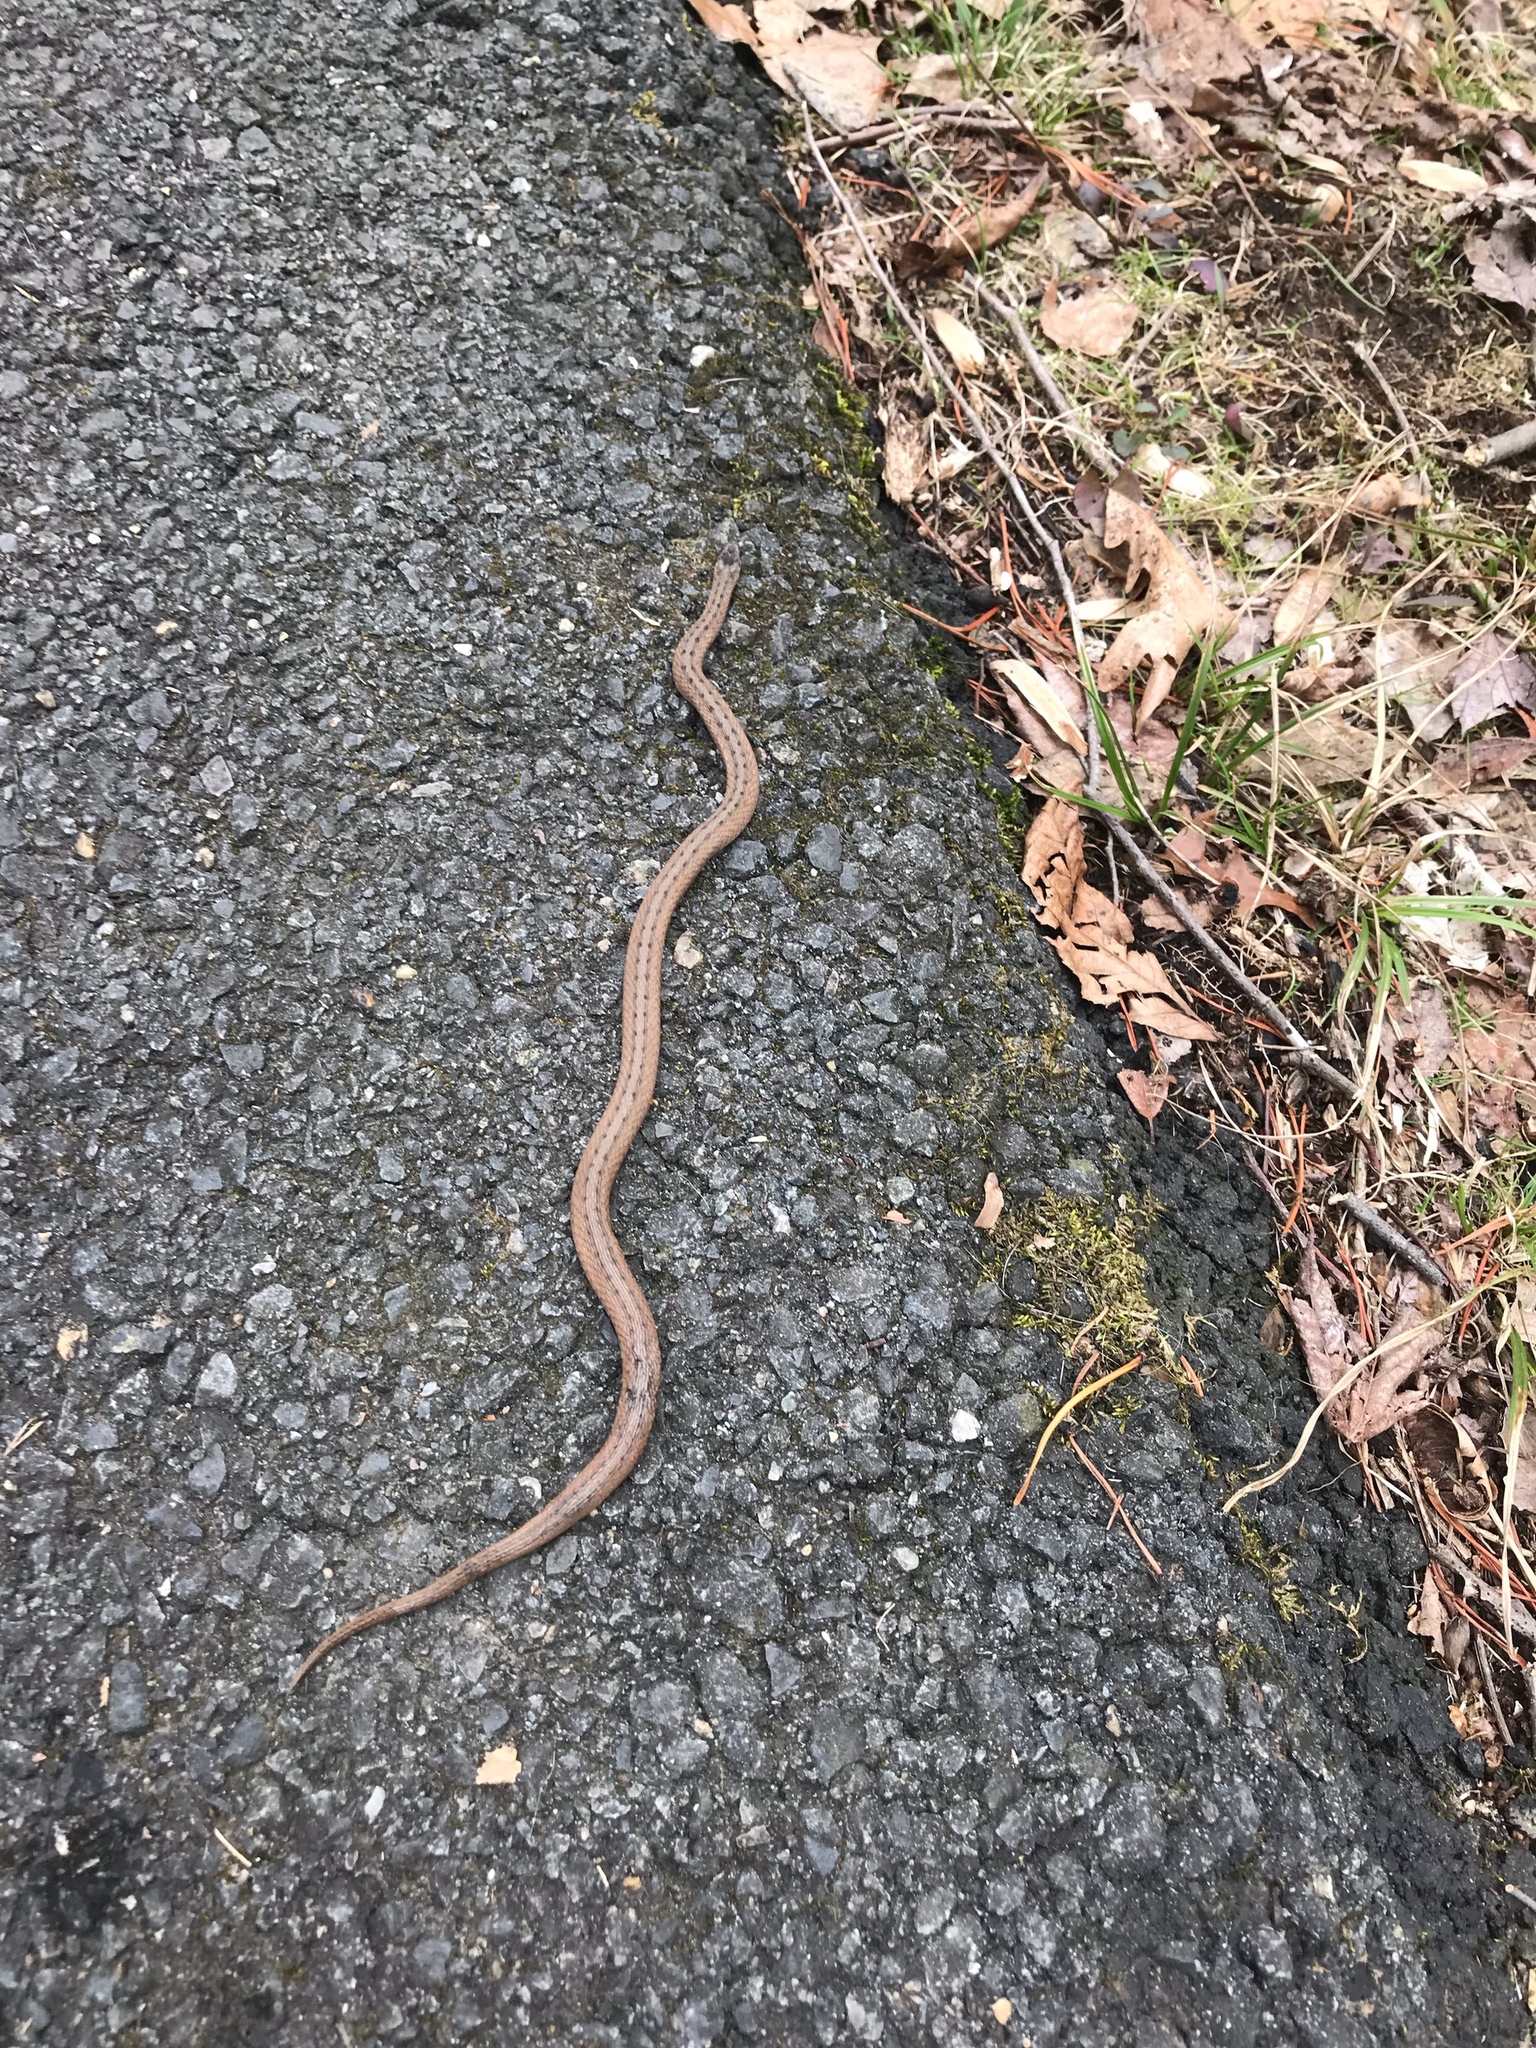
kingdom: Animalia
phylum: Chordata
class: Squamata
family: Colubridae
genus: Storeria
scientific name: Storeria dekayi
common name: (dekay’s) brown snake
